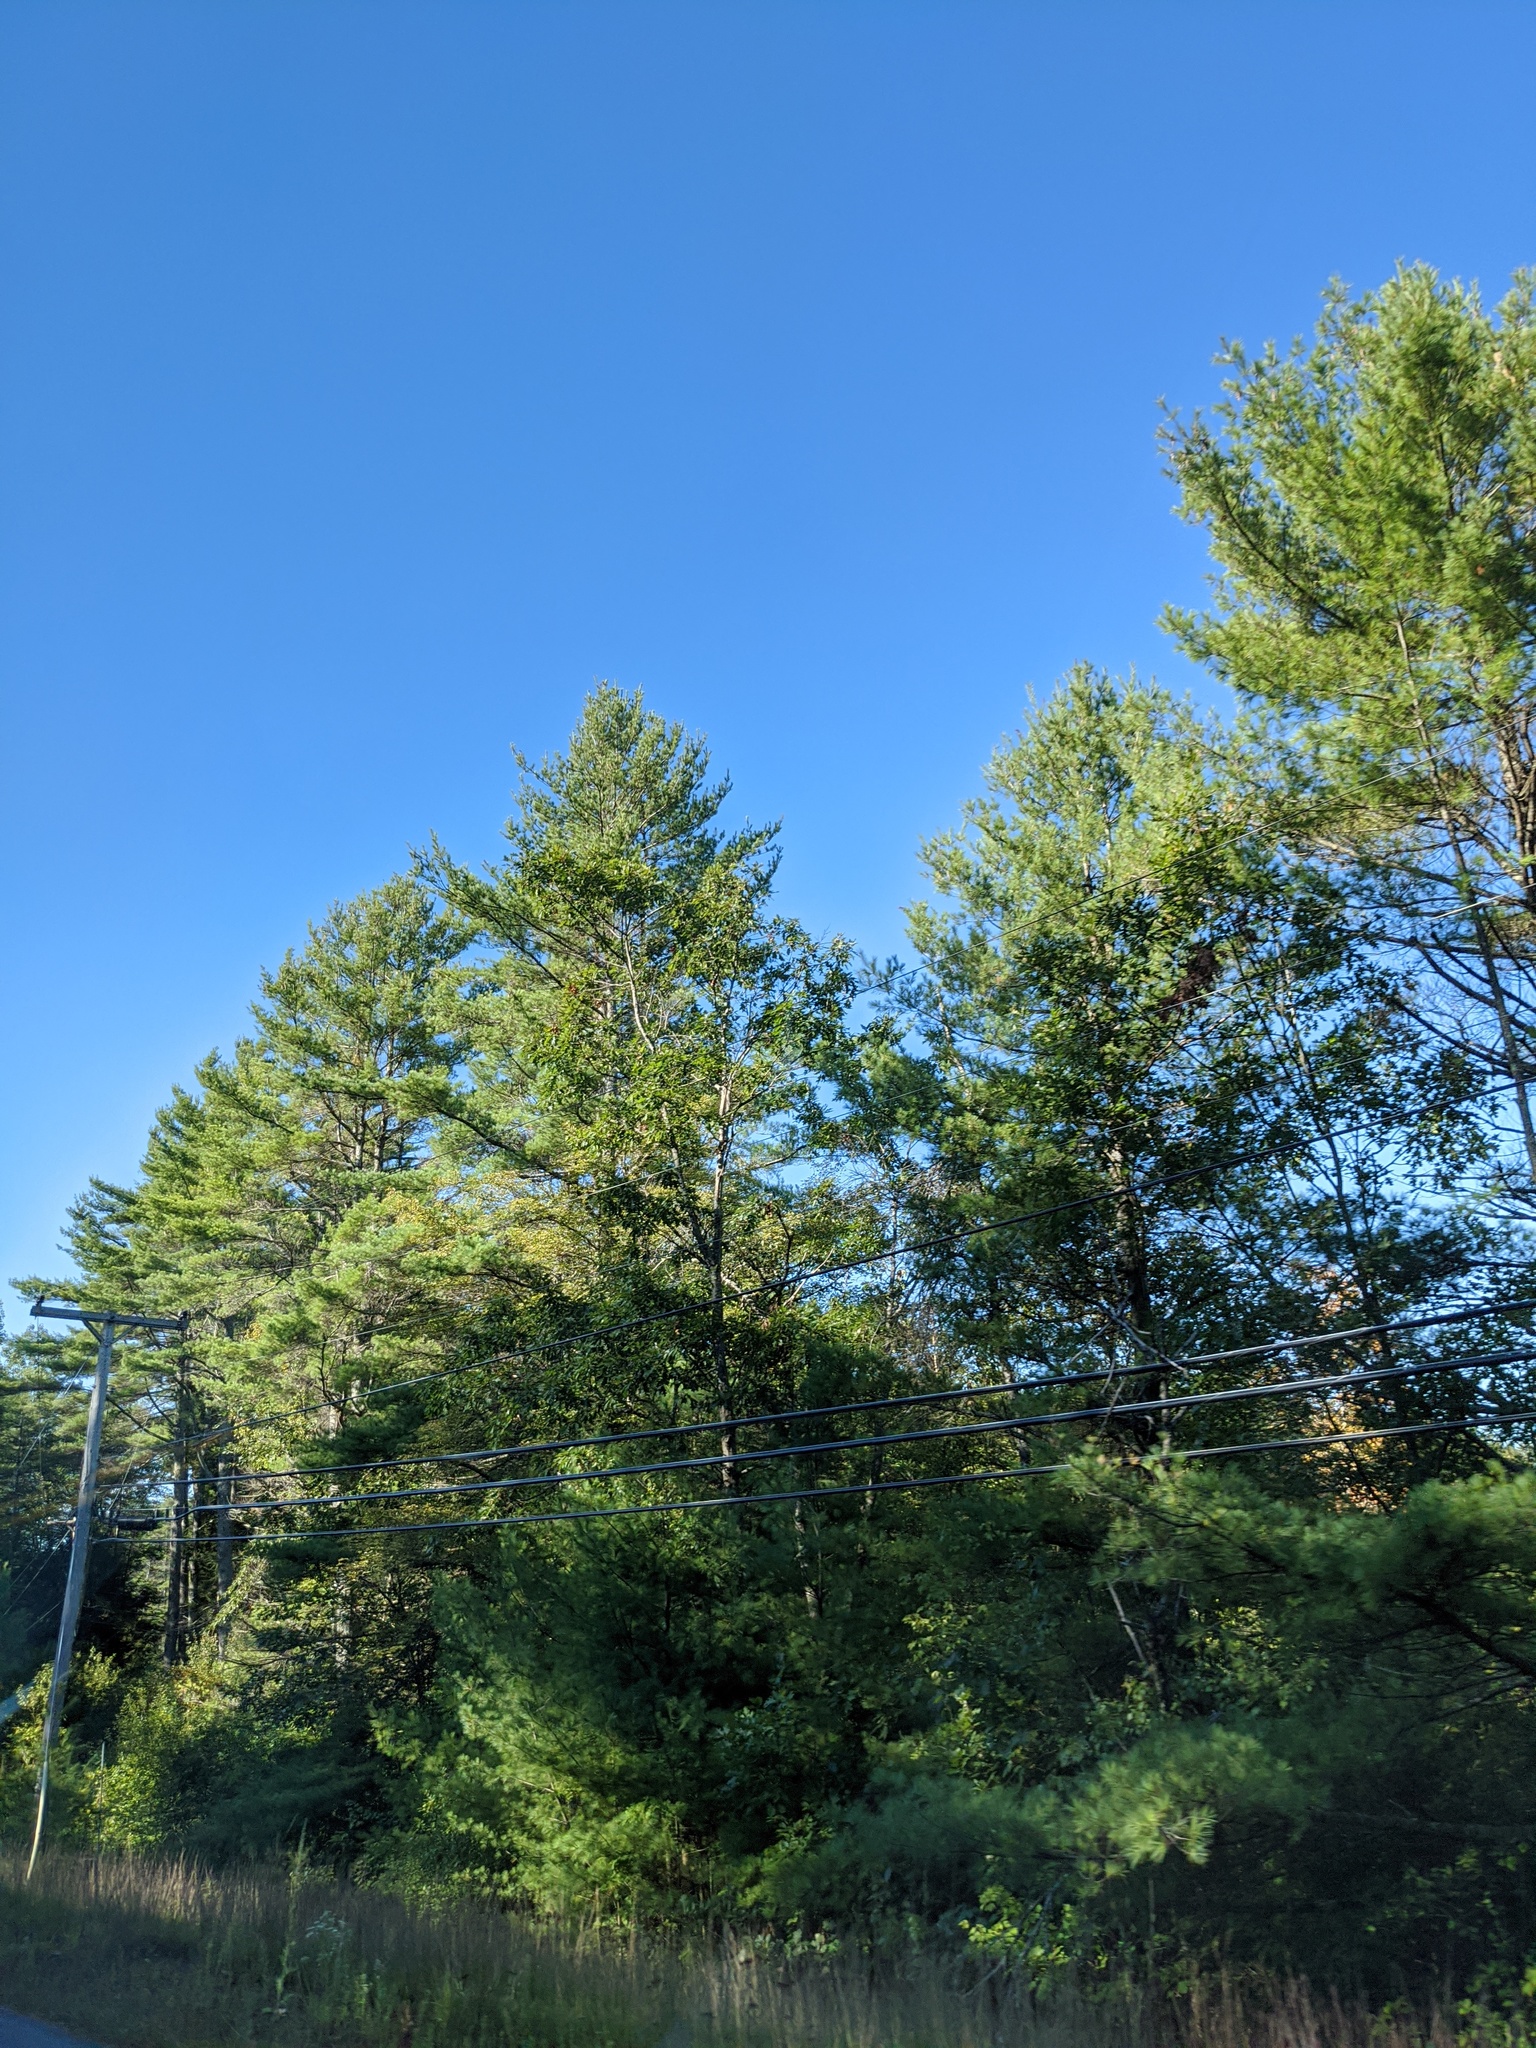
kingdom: Plantae
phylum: Tracheophyta
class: Pinopsida
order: Pinales
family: Pinaceae
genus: Pinus
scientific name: Pinus strobus
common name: Weymouth pine
